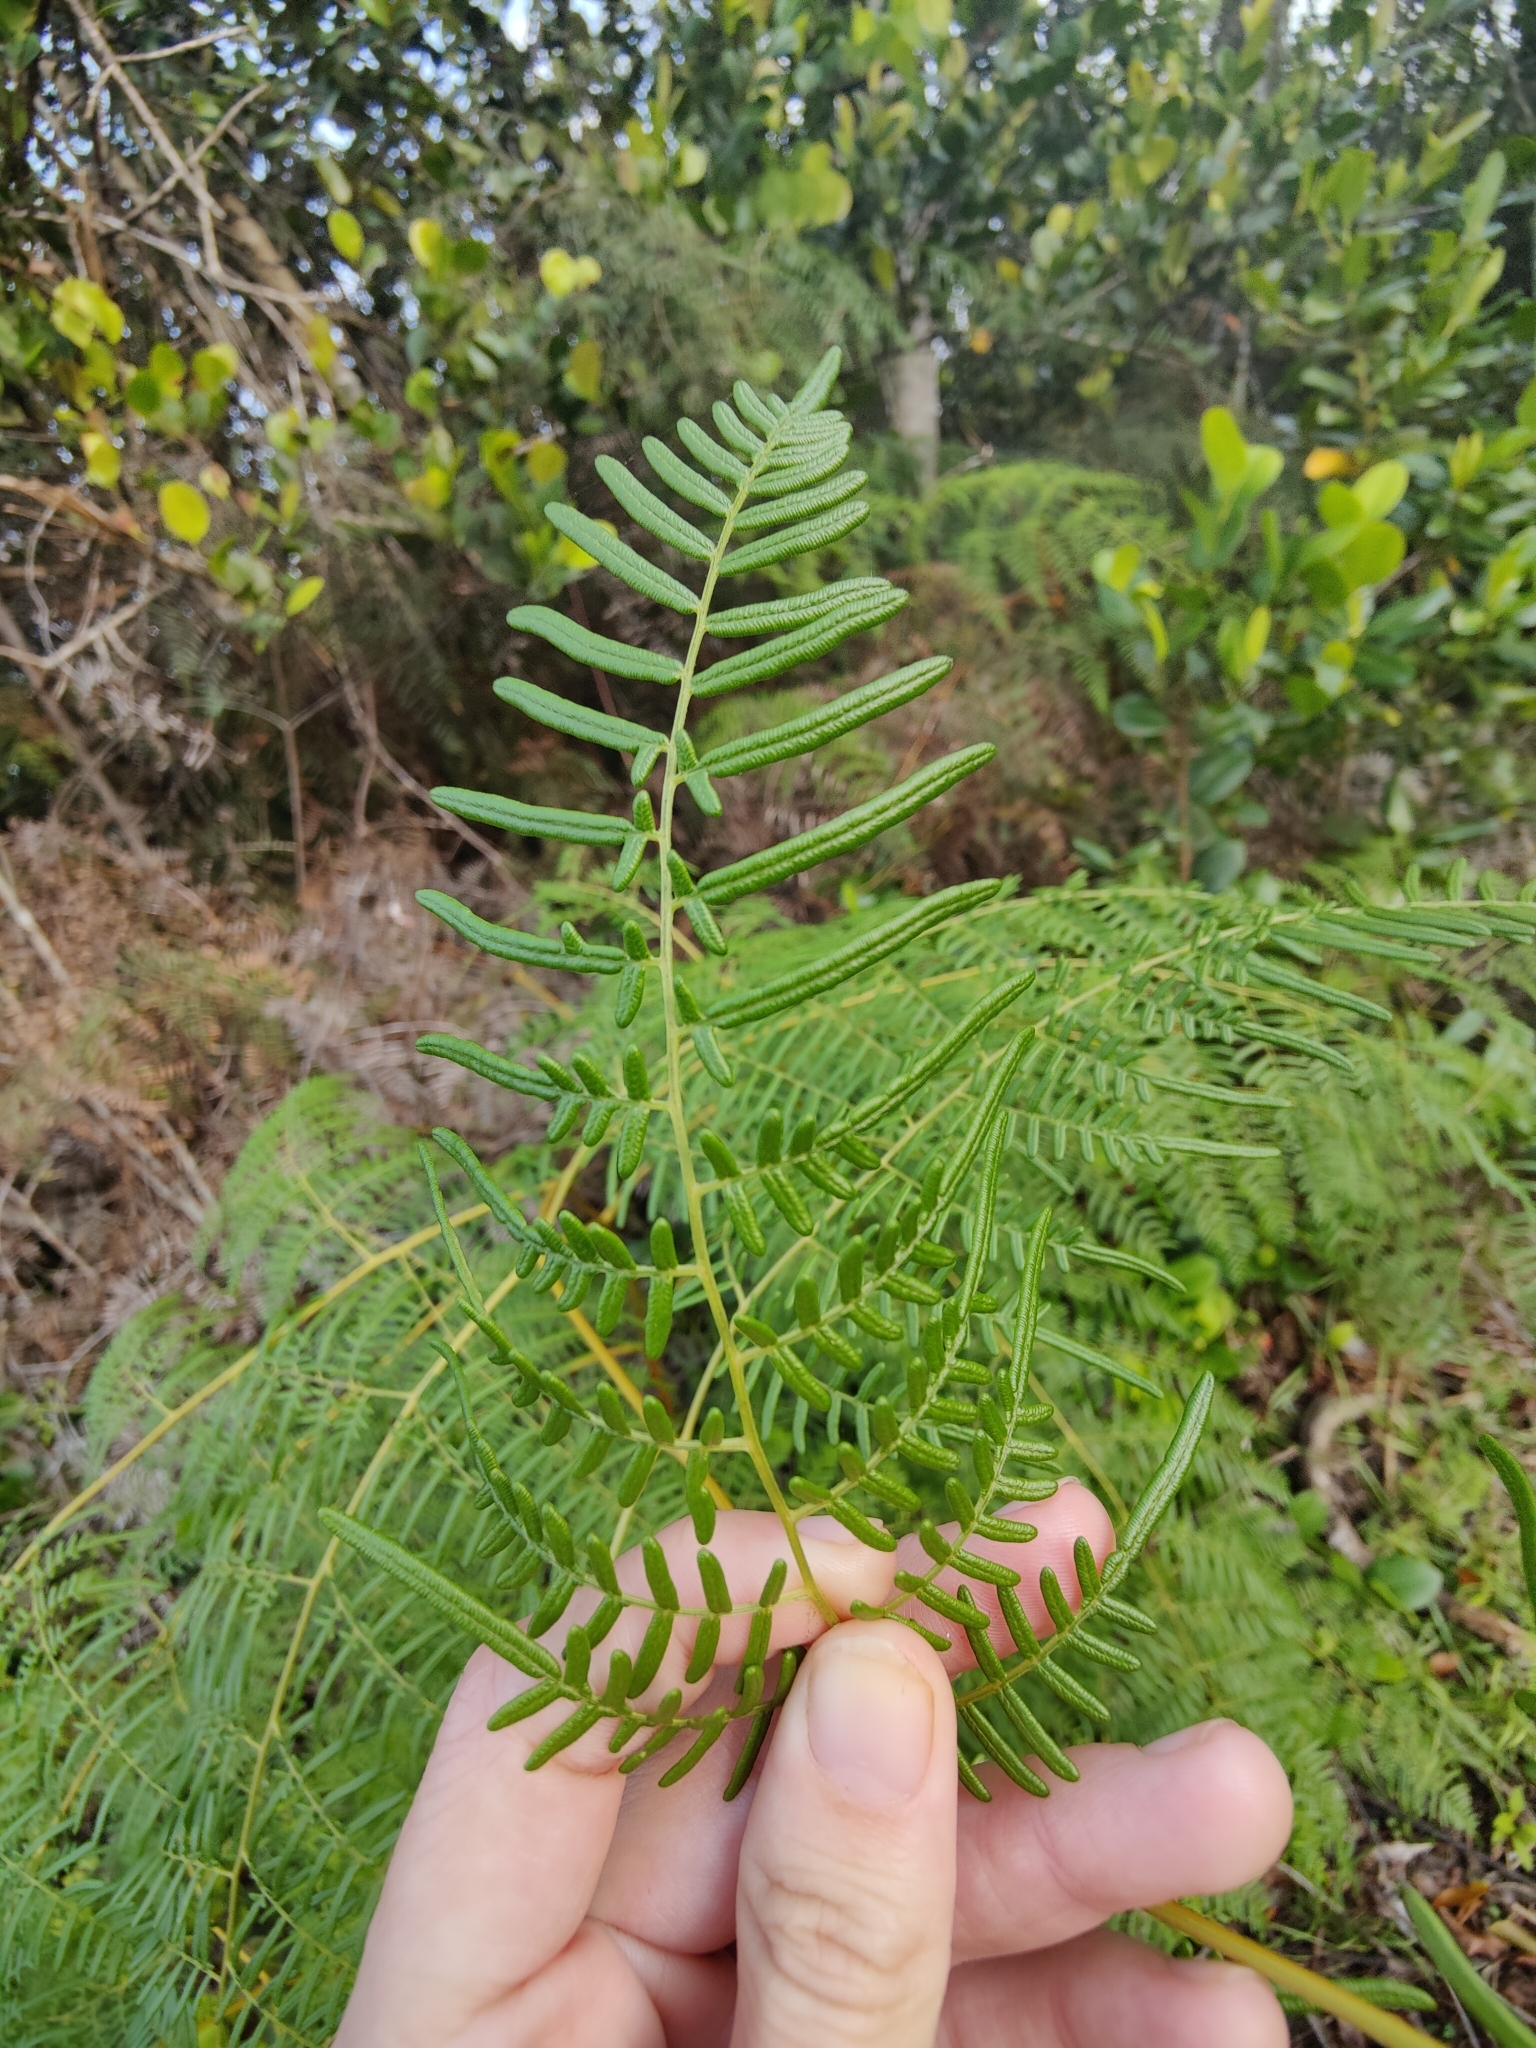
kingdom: Plantae
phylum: Tracheophyta
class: Polypodiopsida
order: Polypodiales
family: Dennstaedtiaceae
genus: Pteridium
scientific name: Pteridium caudatum
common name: Southern bracken fern
